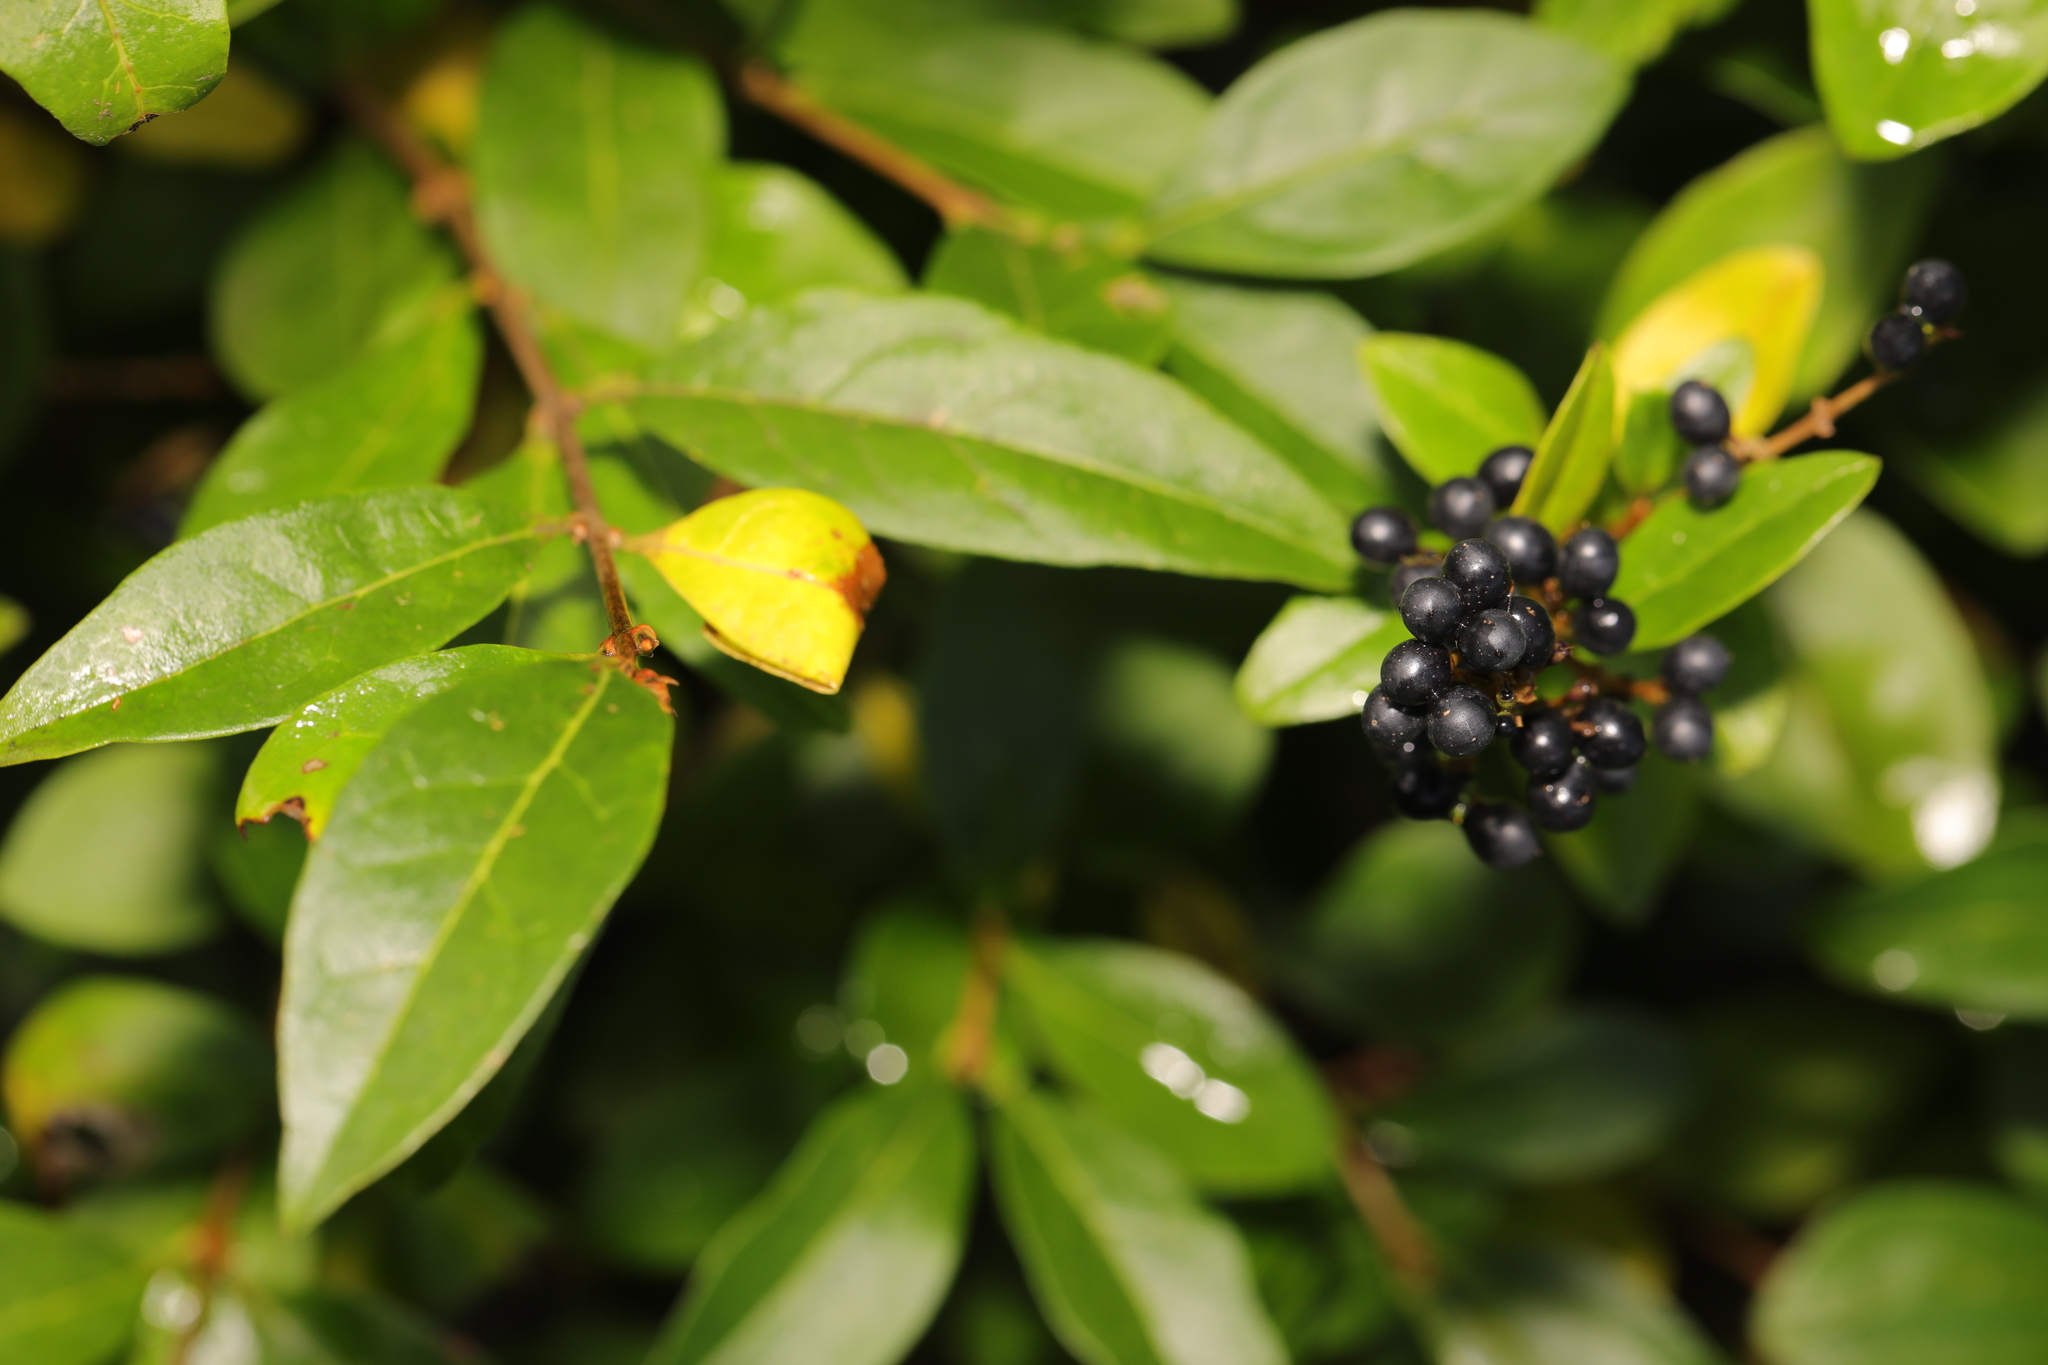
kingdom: Plantae
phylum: Tracheophyta
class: Magnoliopsida
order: Lamiales
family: Oleaceae
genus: Ligustrum
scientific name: Ligustrum ovalifolium
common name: California privet
